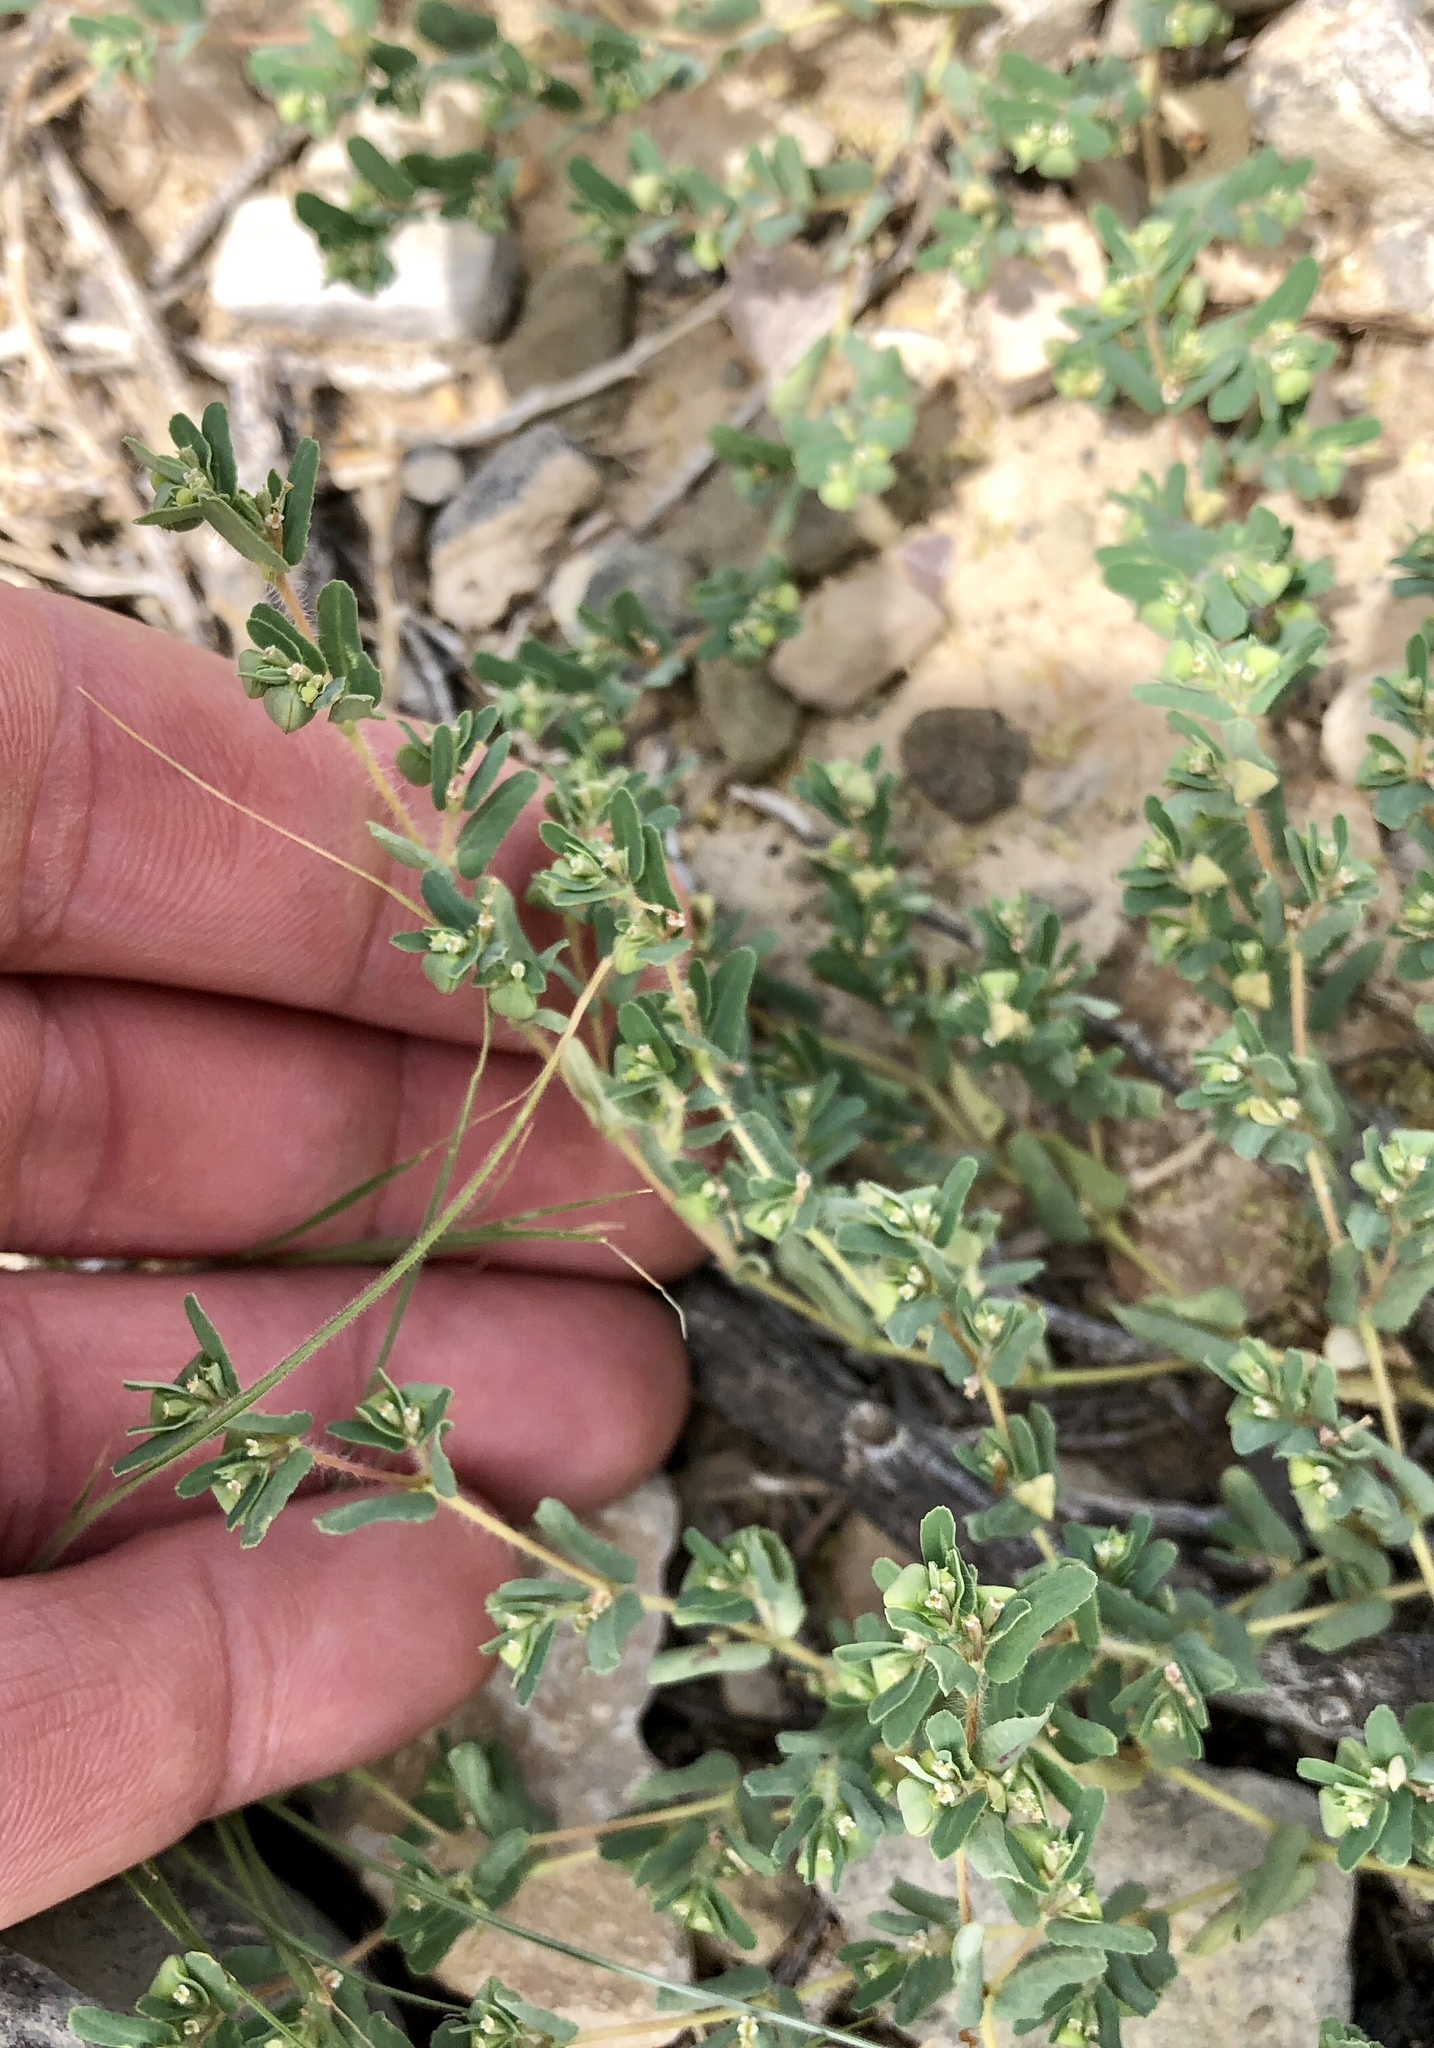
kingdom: Plantae
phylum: Tracheophyta
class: Magnoliopsida
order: Malpighiales
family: Euphorbiaceae
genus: Euphorbia
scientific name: Euphorbia serrula
